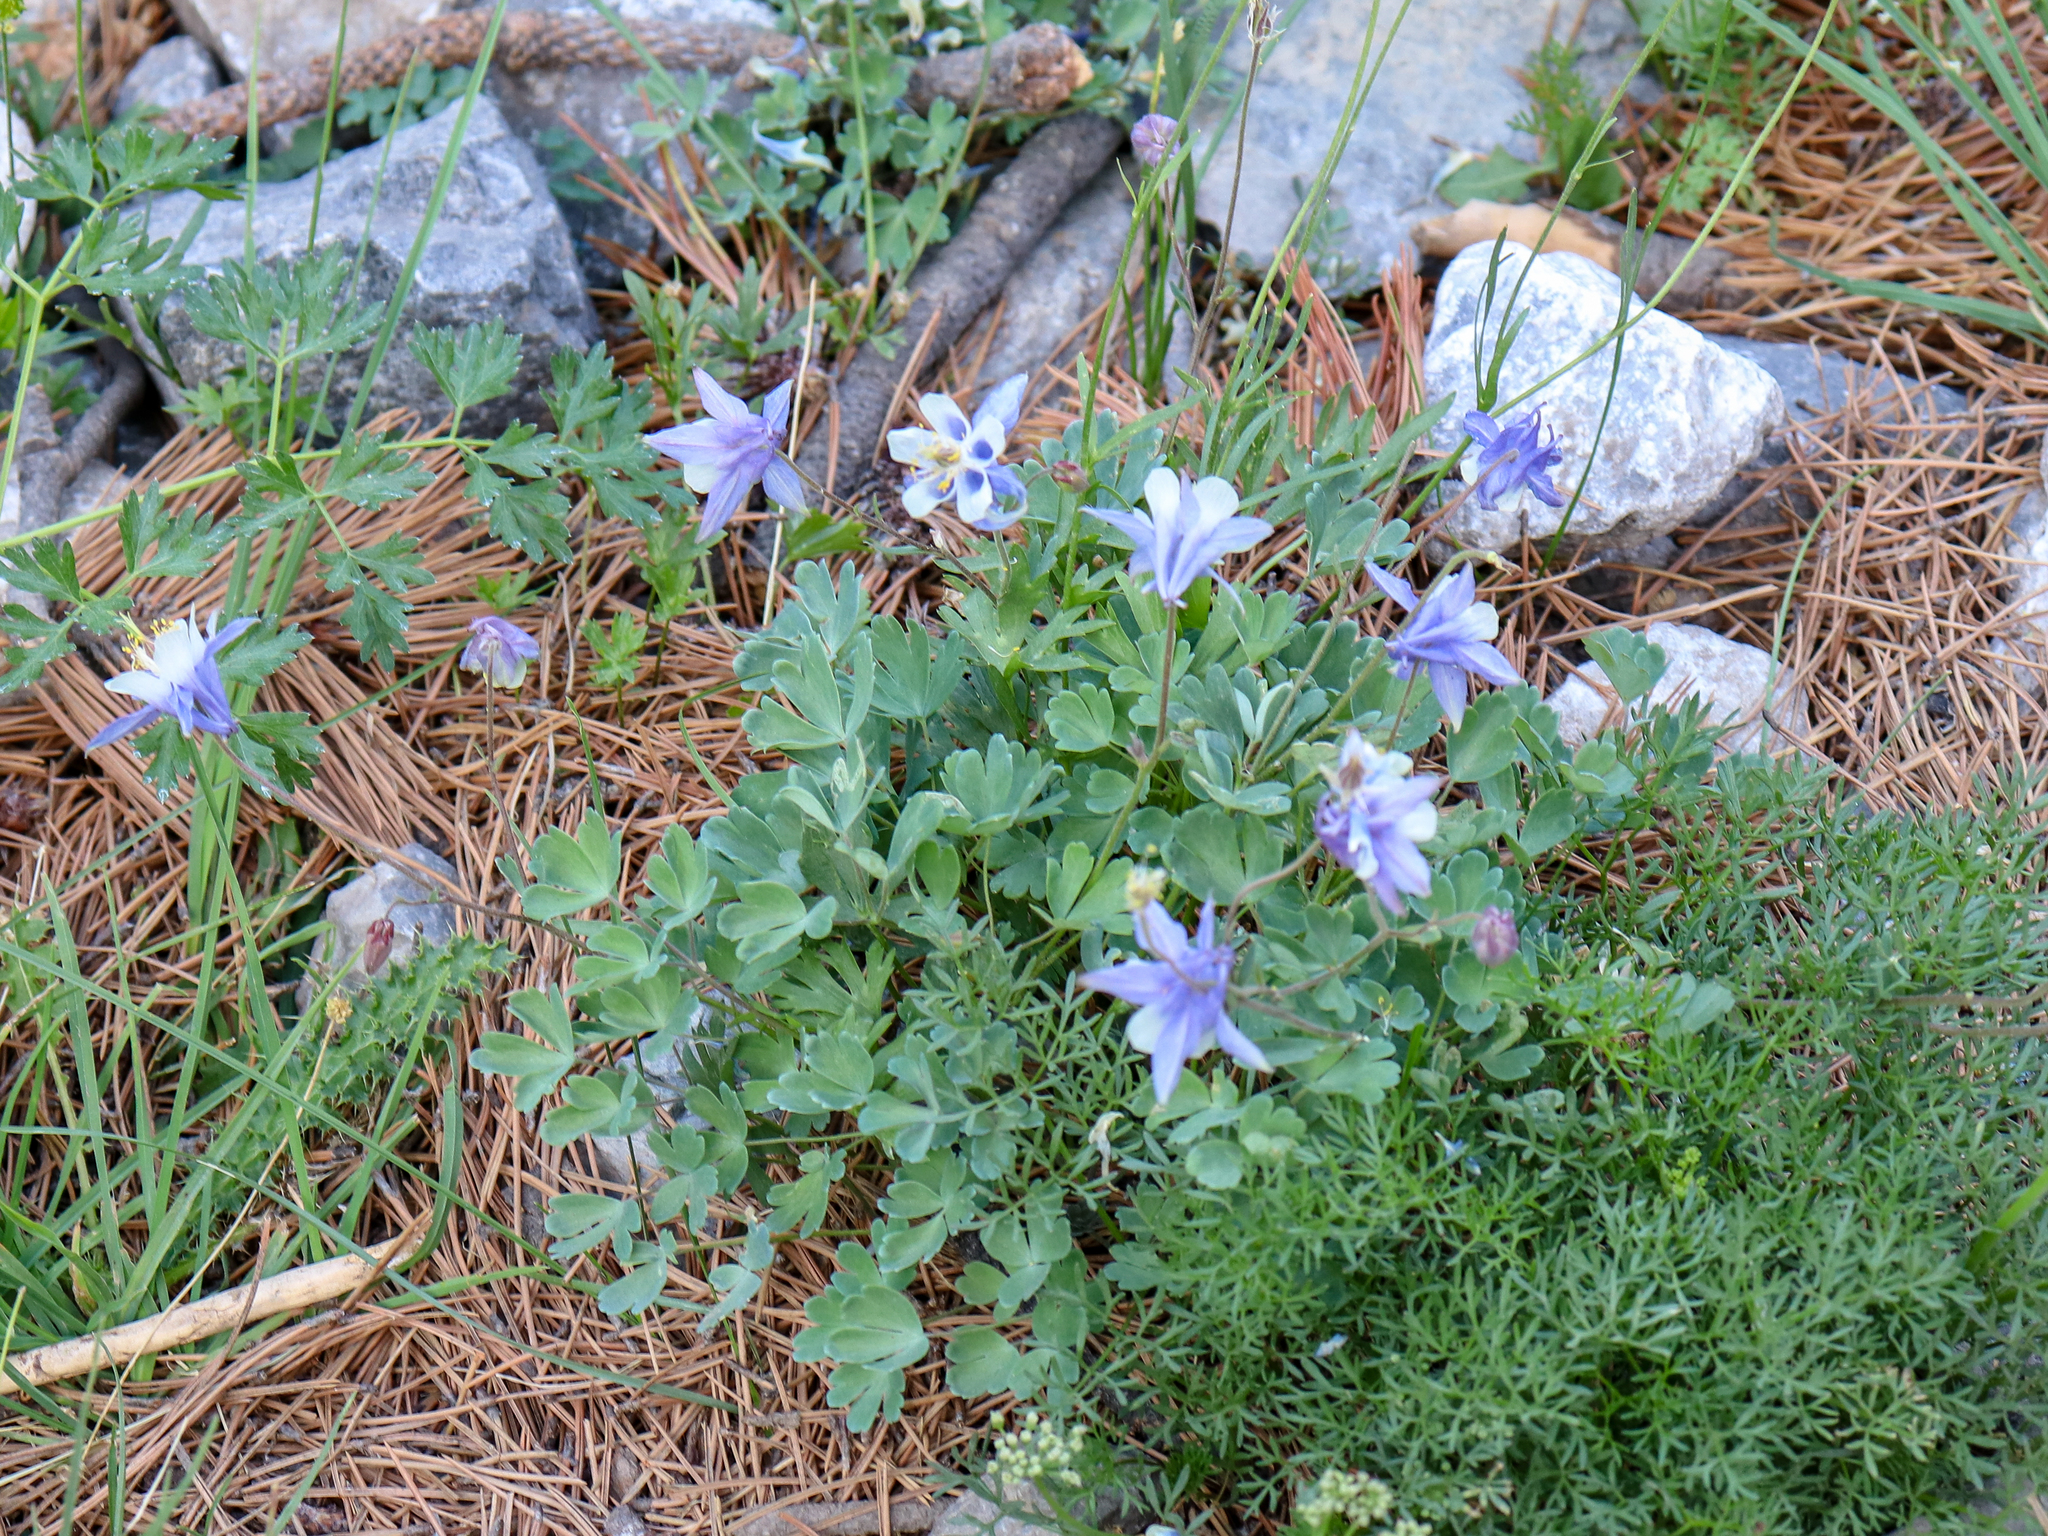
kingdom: Plantae
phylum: Tracheophyta
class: Magnoliopsida
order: Ranunculales
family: Ranunculaceae
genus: Aquilegia
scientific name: Aquilegia amaliae
